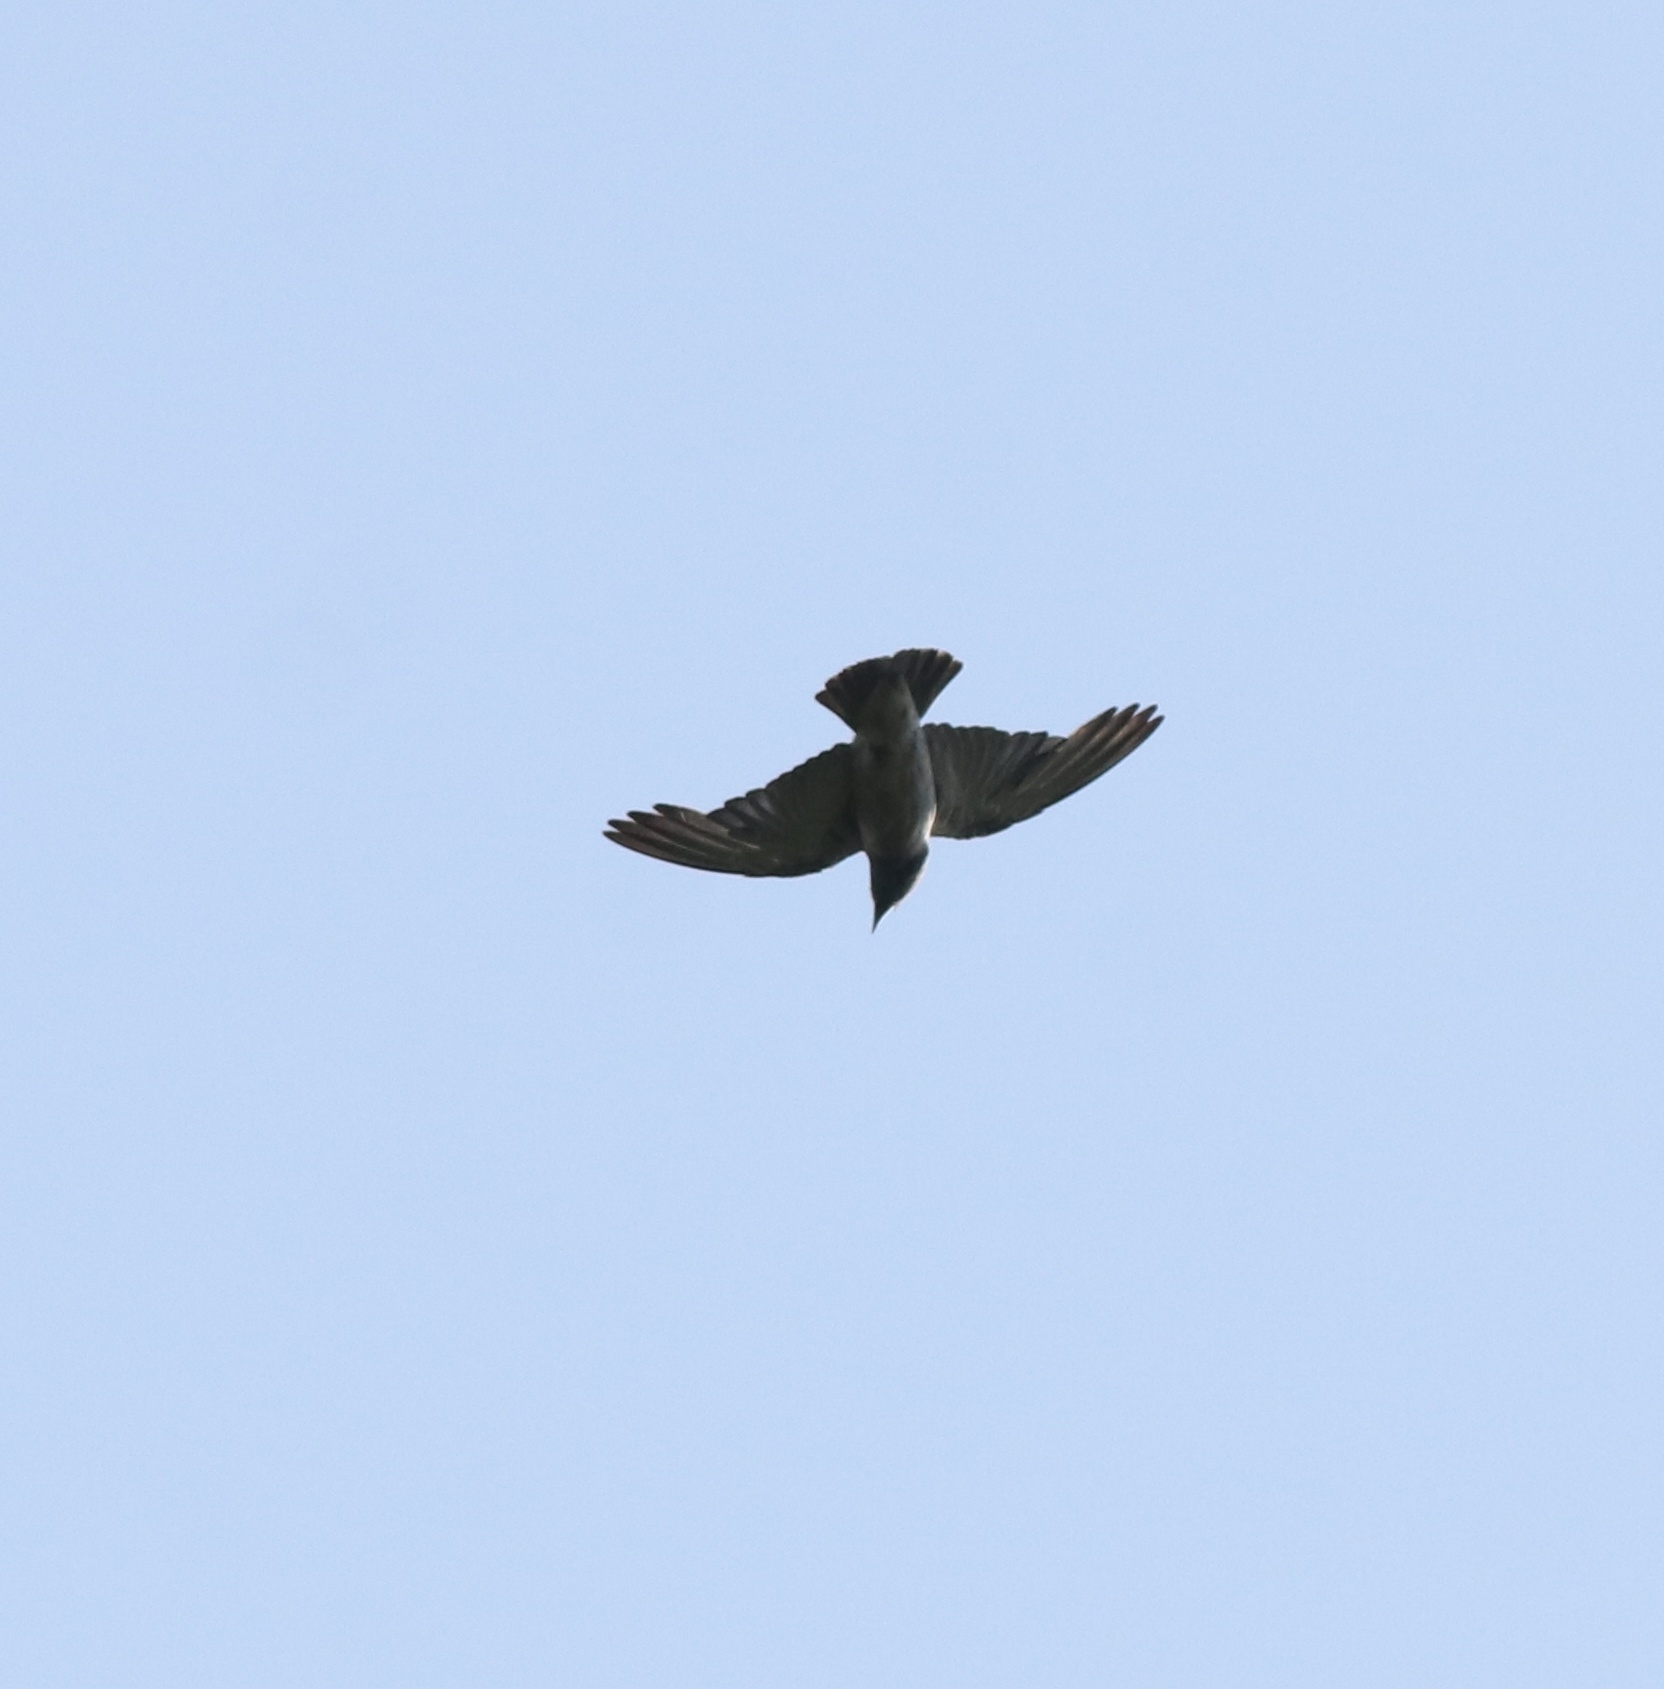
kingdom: Animalia
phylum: Chordata
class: Aves
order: Passeriformes
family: Artamidae
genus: Artamus
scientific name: Artamus fuscus
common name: Ashy woodswallow
